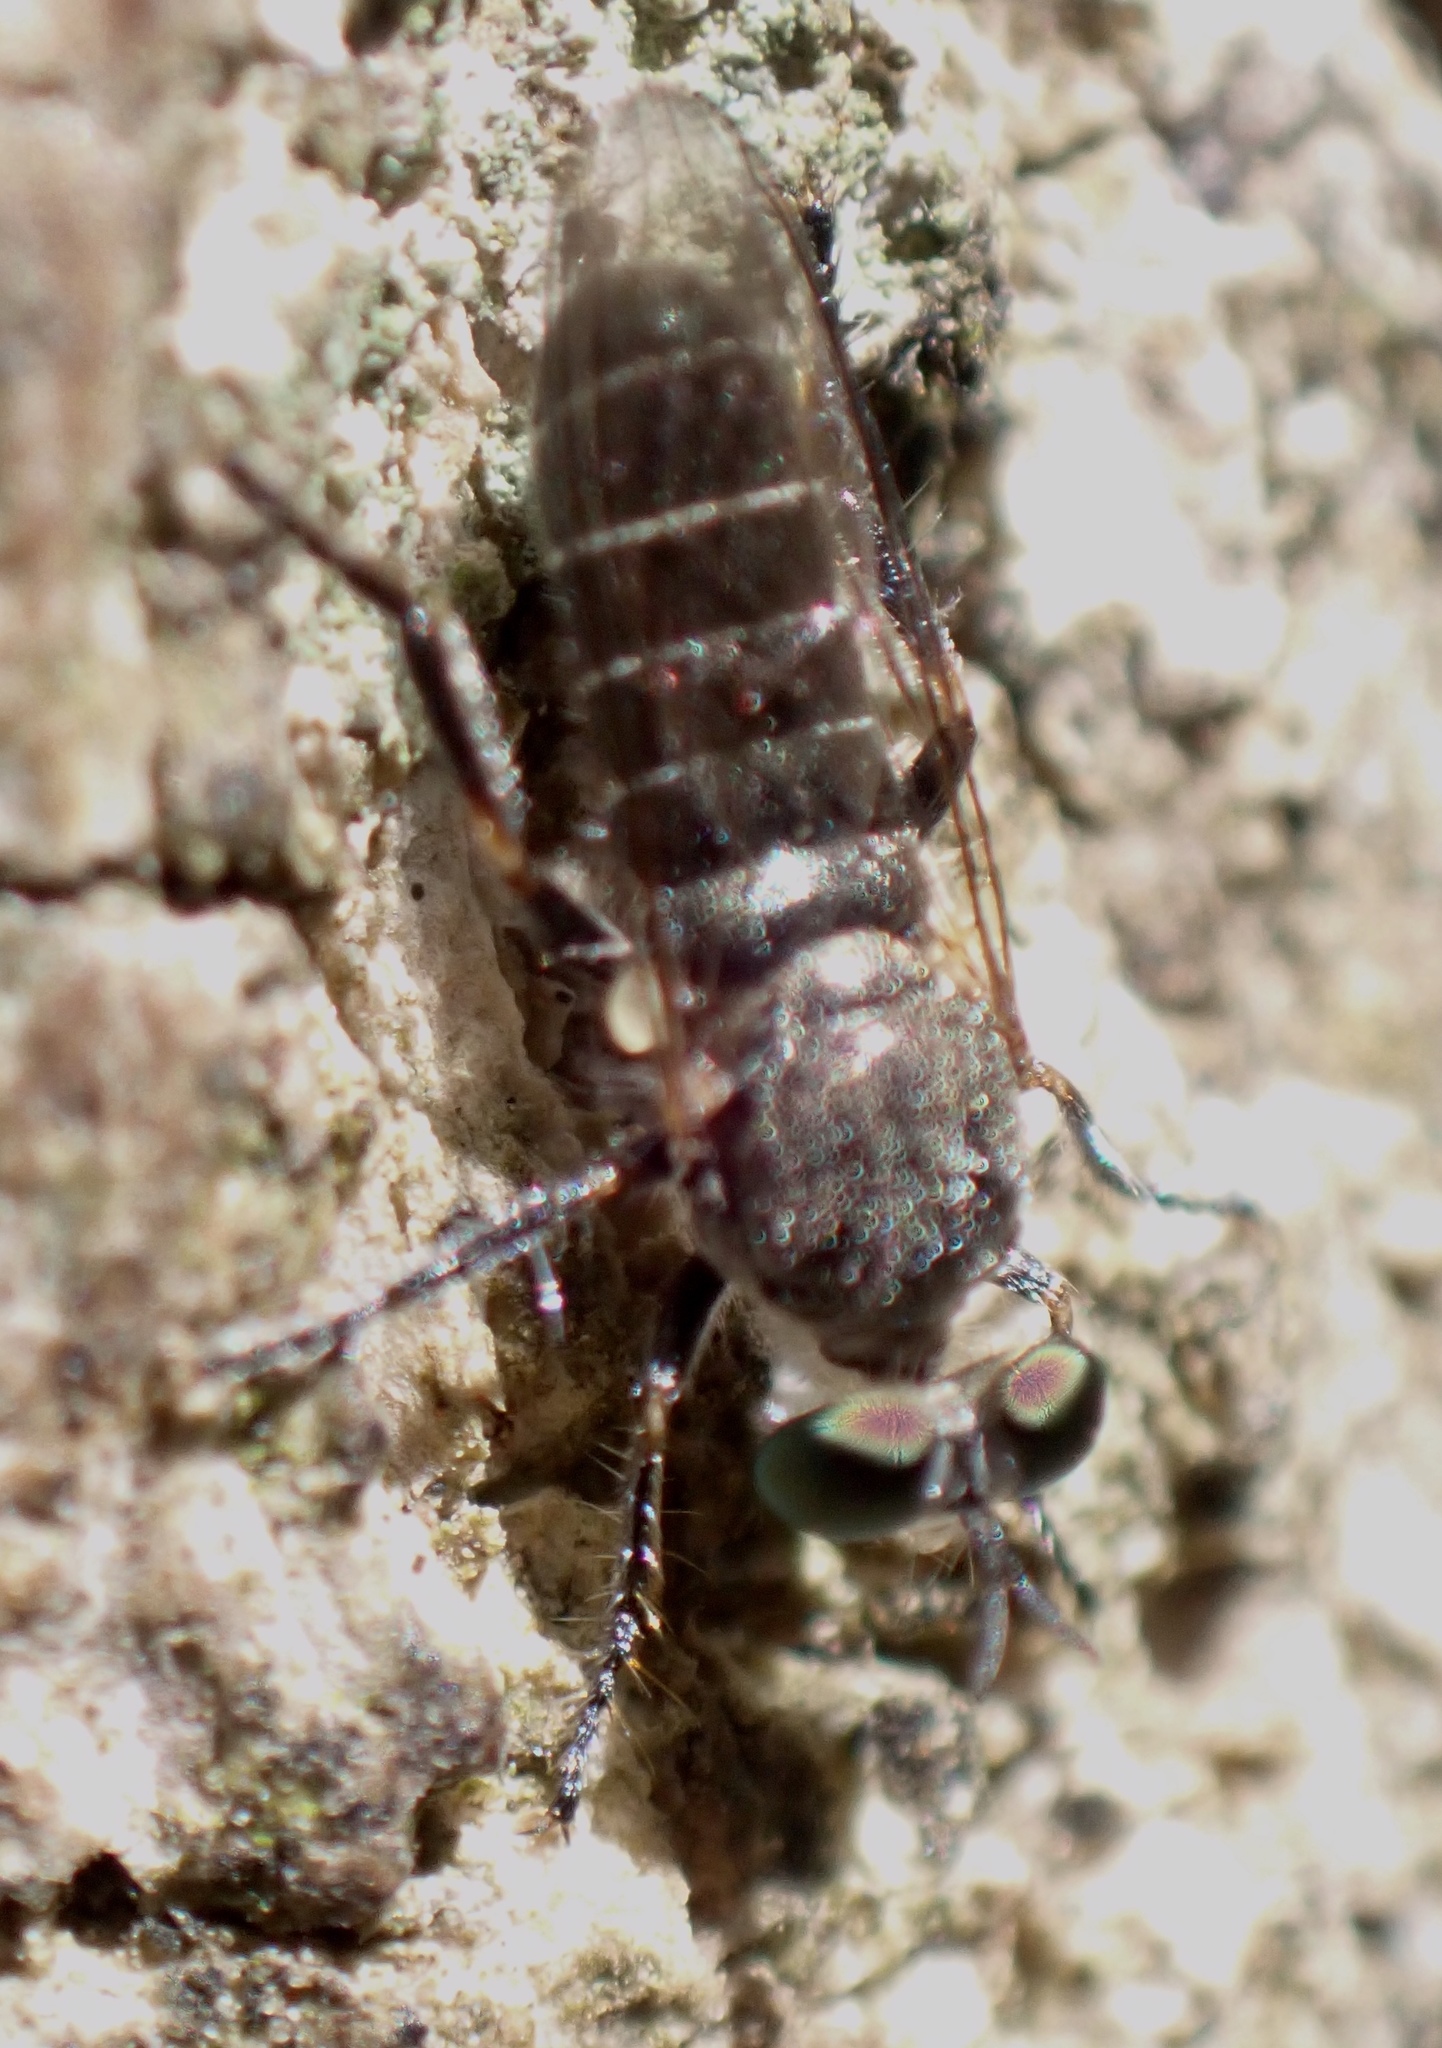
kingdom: Animalia
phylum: Arthropoda
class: Insecta
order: Diptera
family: Asilidae
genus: Atomosia
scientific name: Atomosia puella
